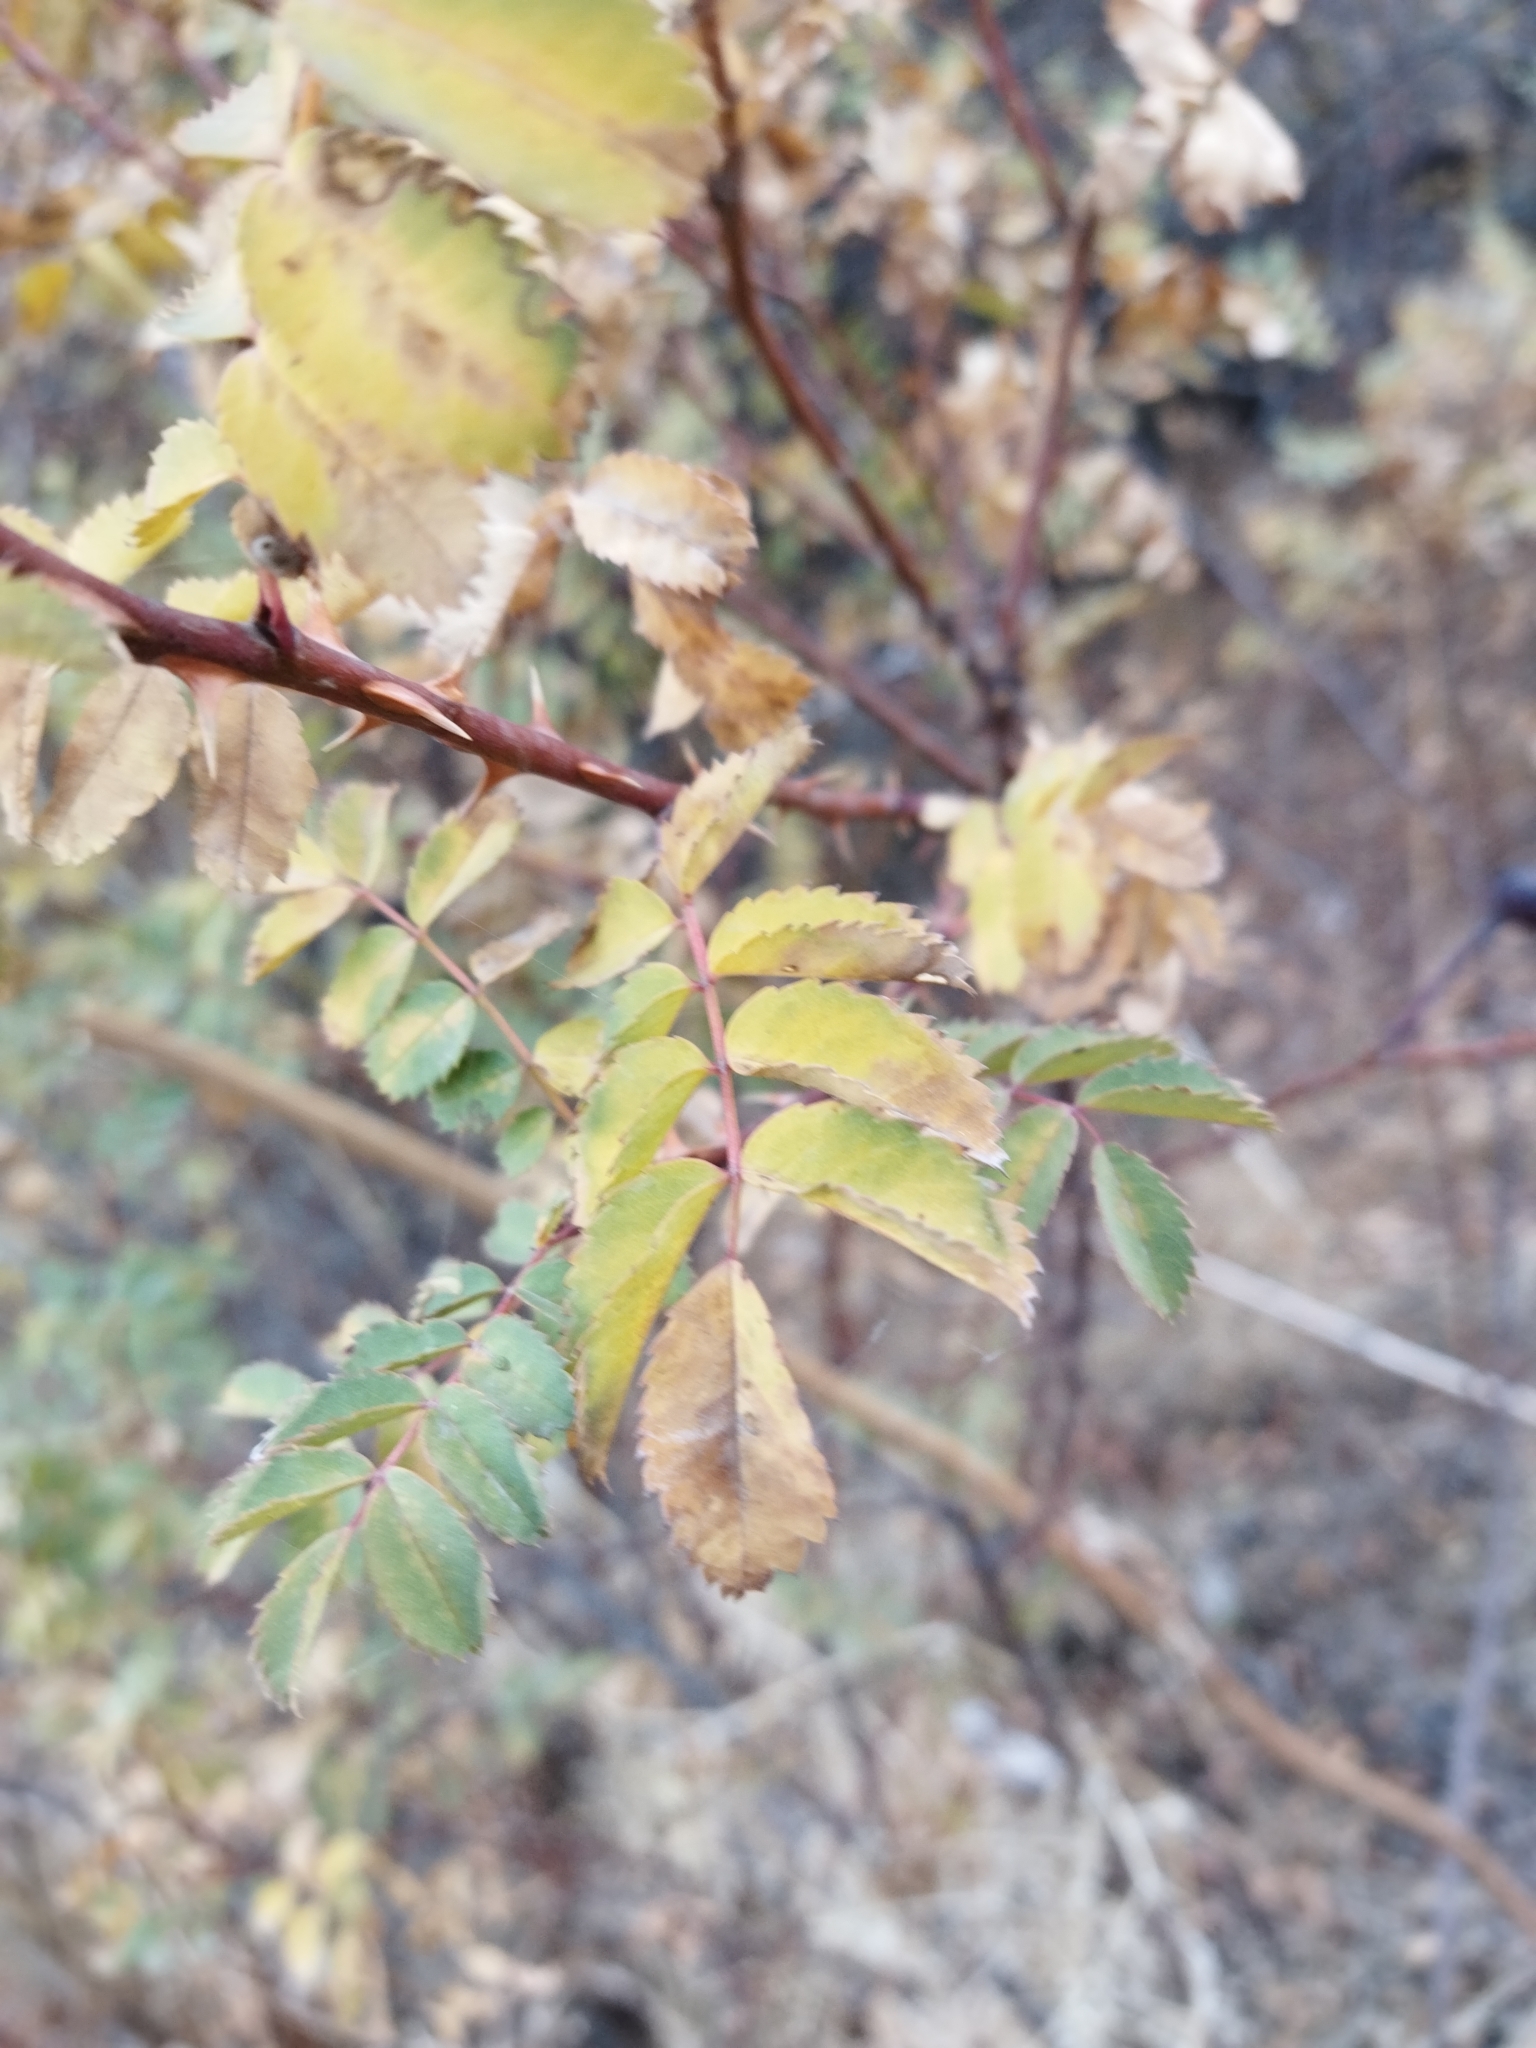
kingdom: Plantae
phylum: Tracheophyta
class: Magnoliopsida
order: Rosales
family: Rosaceae
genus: Rosa
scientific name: Rosa platyacantha
